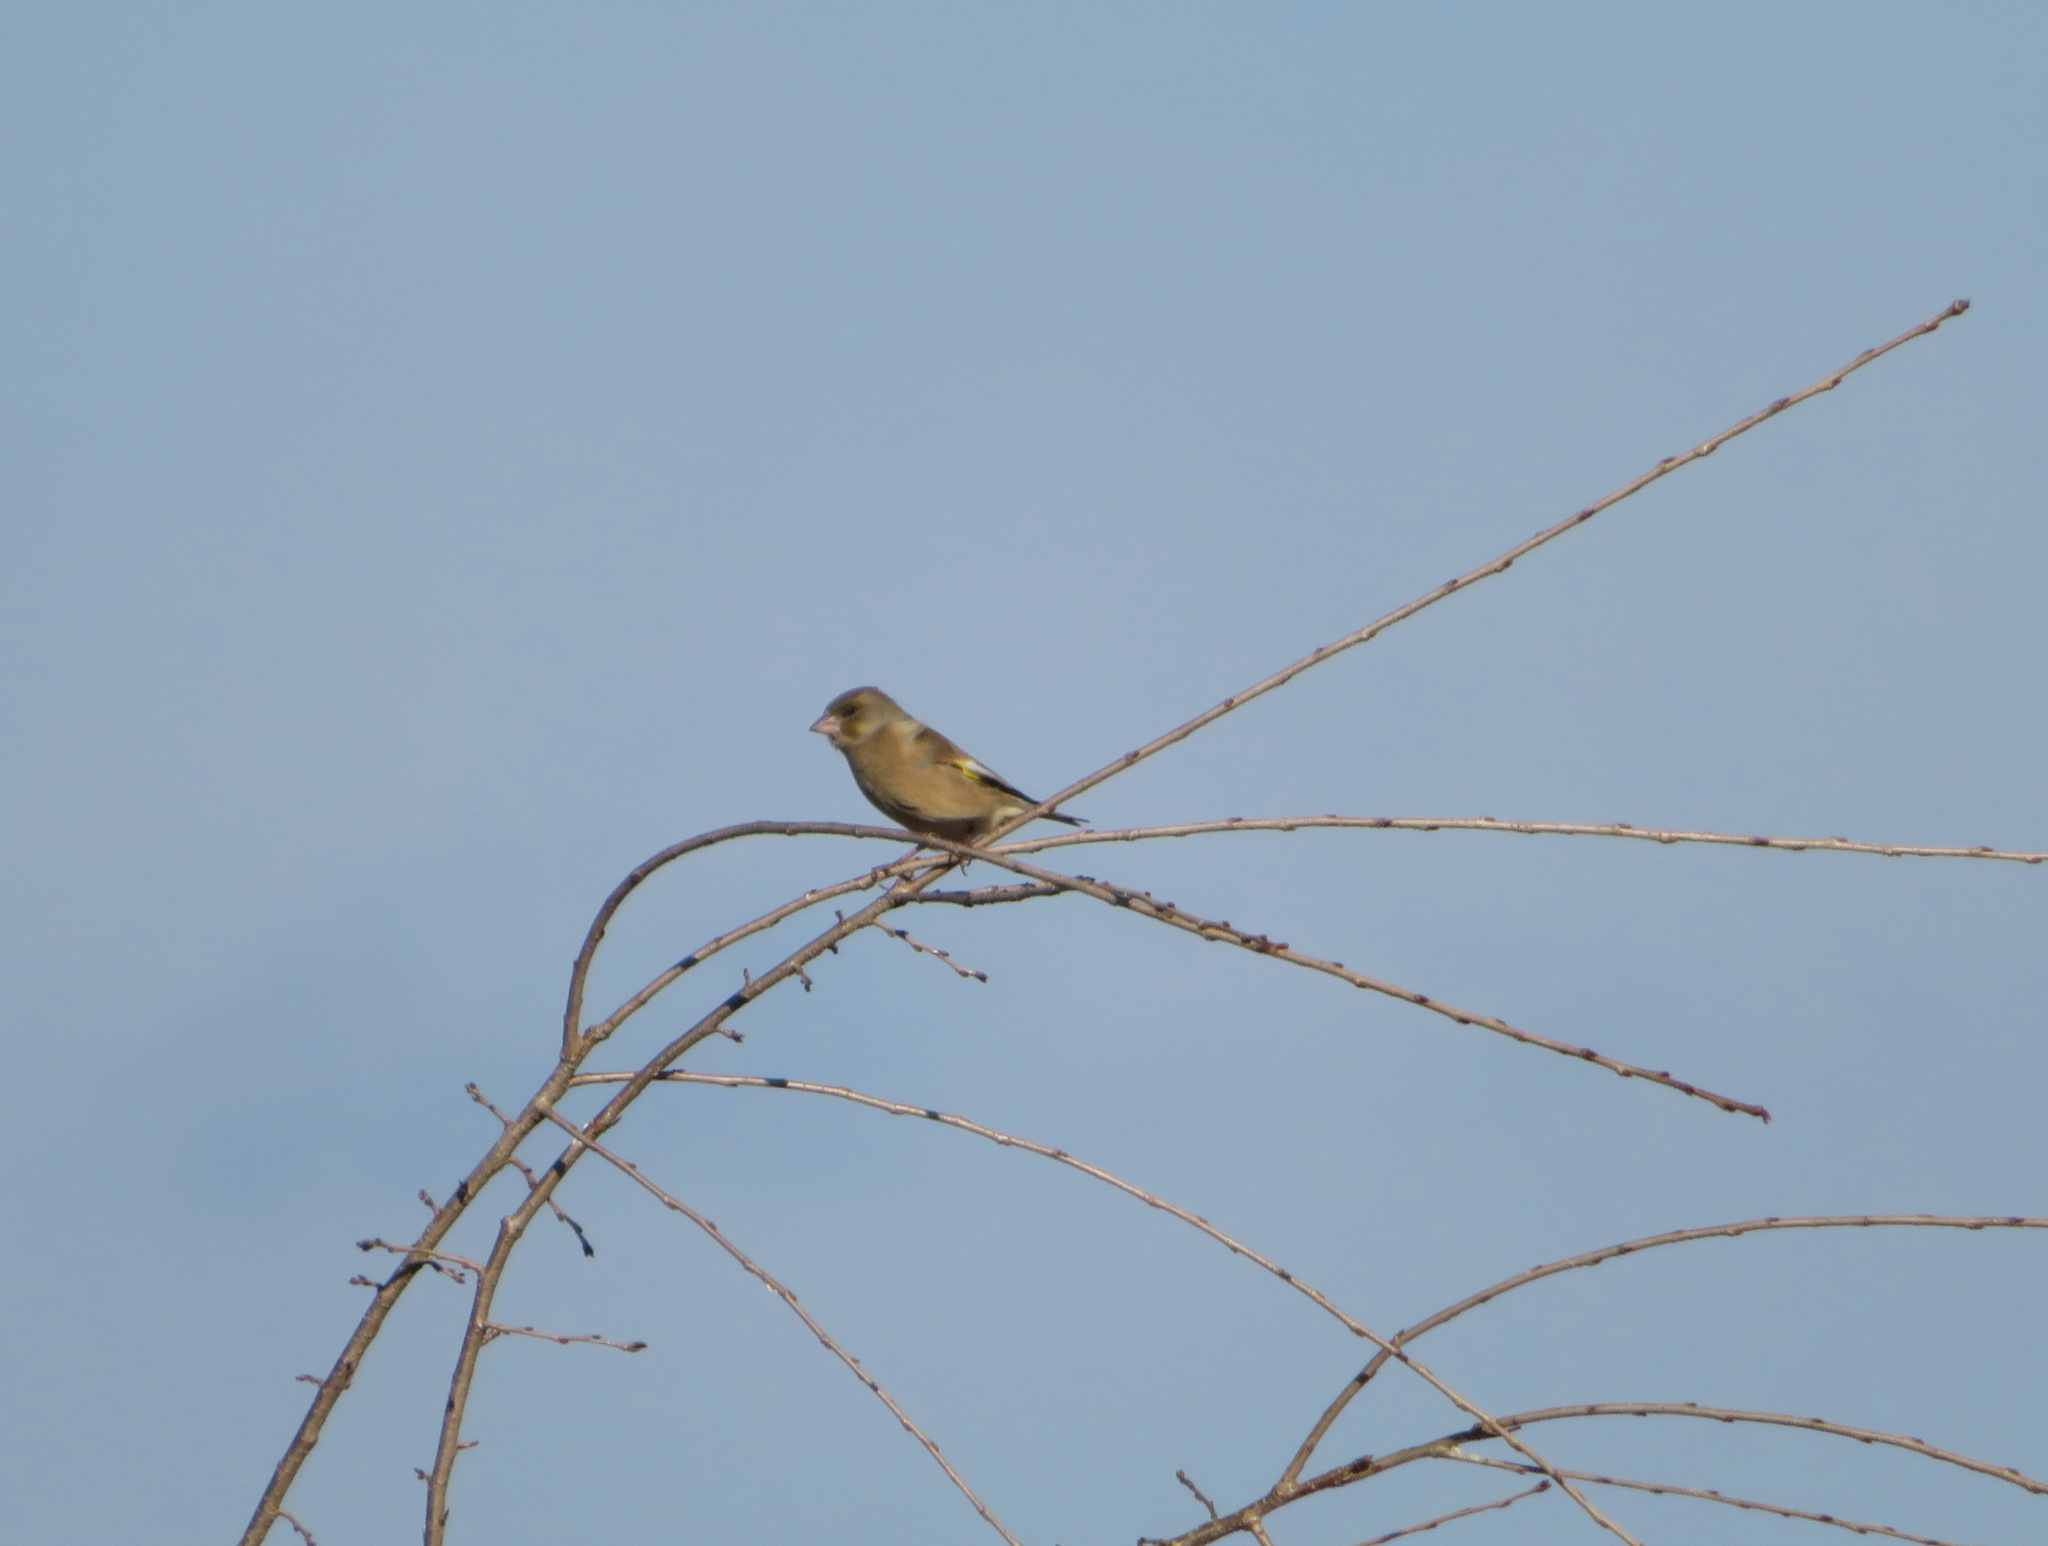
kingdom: Plantae
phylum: Tracheophyta
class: Liliopsida
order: Poales
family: Poaceae
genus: Chloris
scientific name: Chloris sinica
